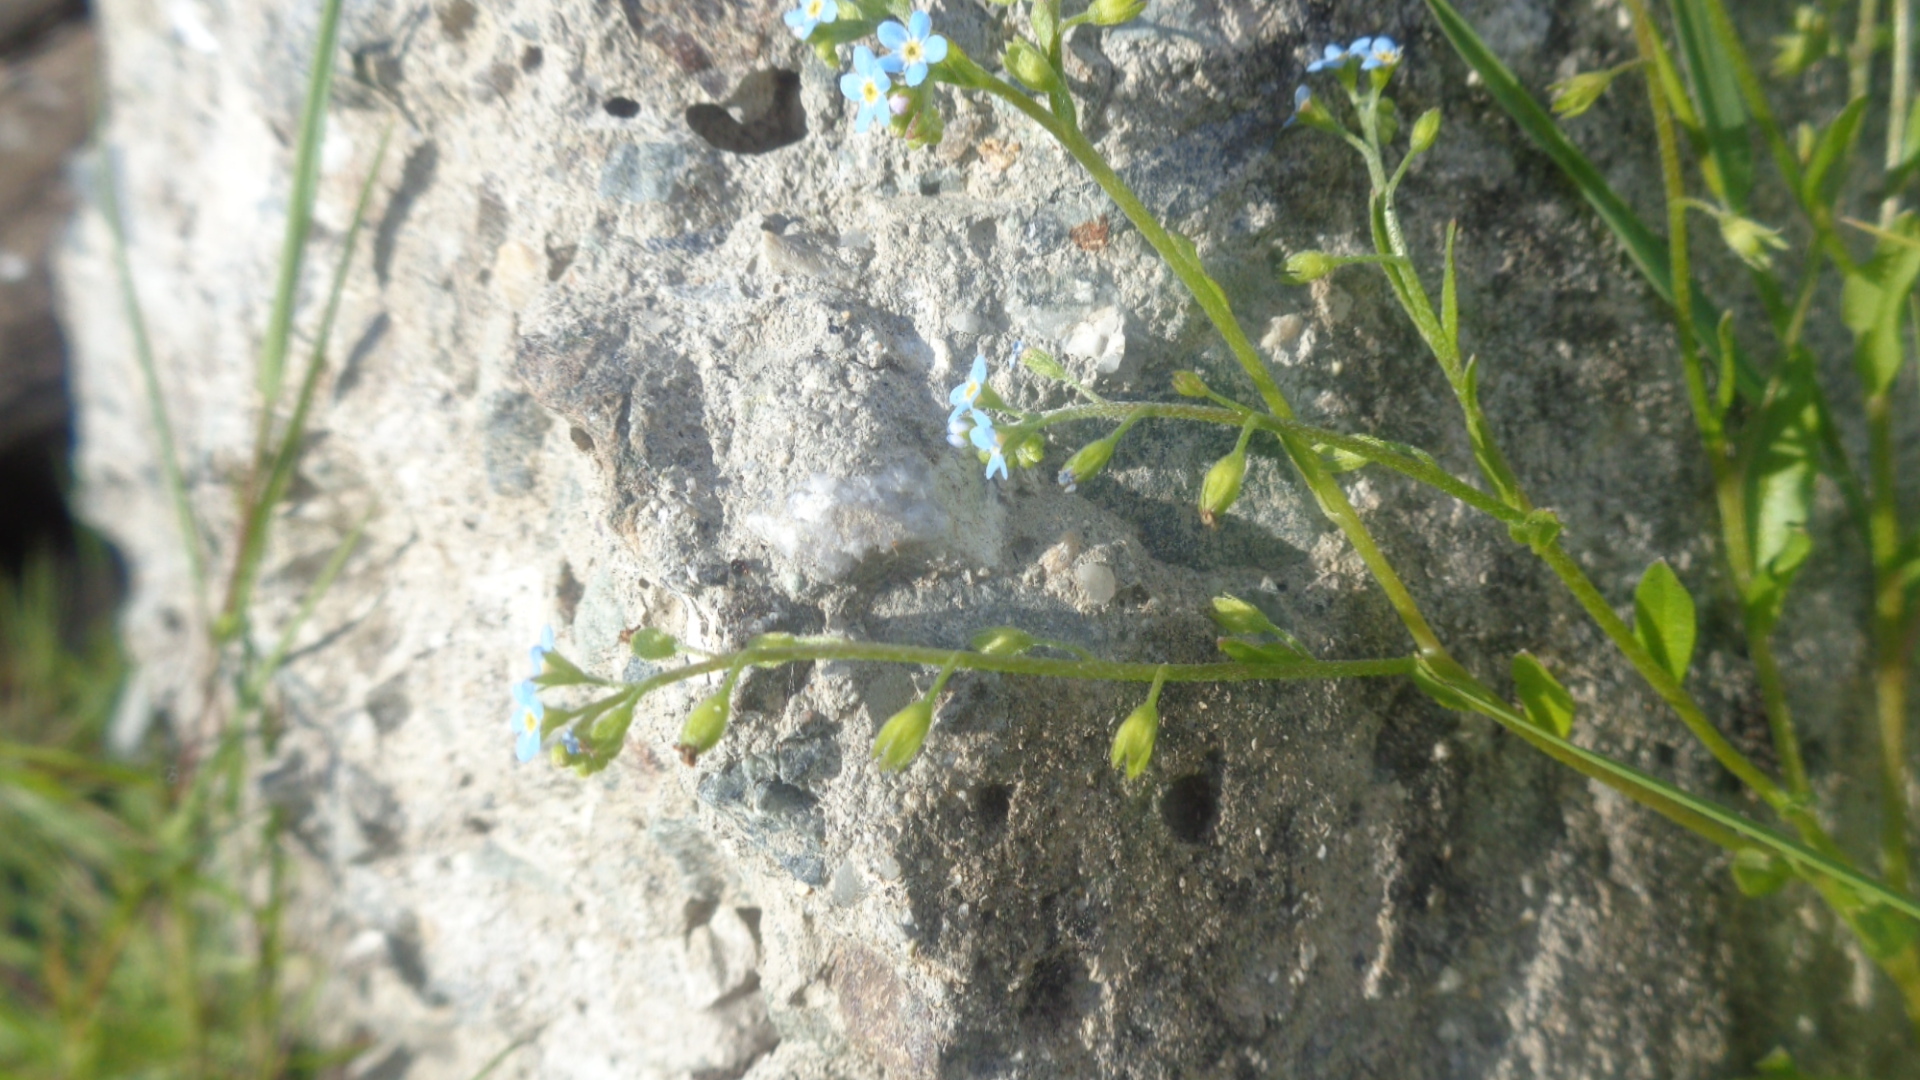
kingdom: Plantae
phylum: Tracheophyta
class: Magnoliopsida
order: Boraginales
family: Boraginaceae
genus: Myosotis
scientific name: Myosotis laxa
